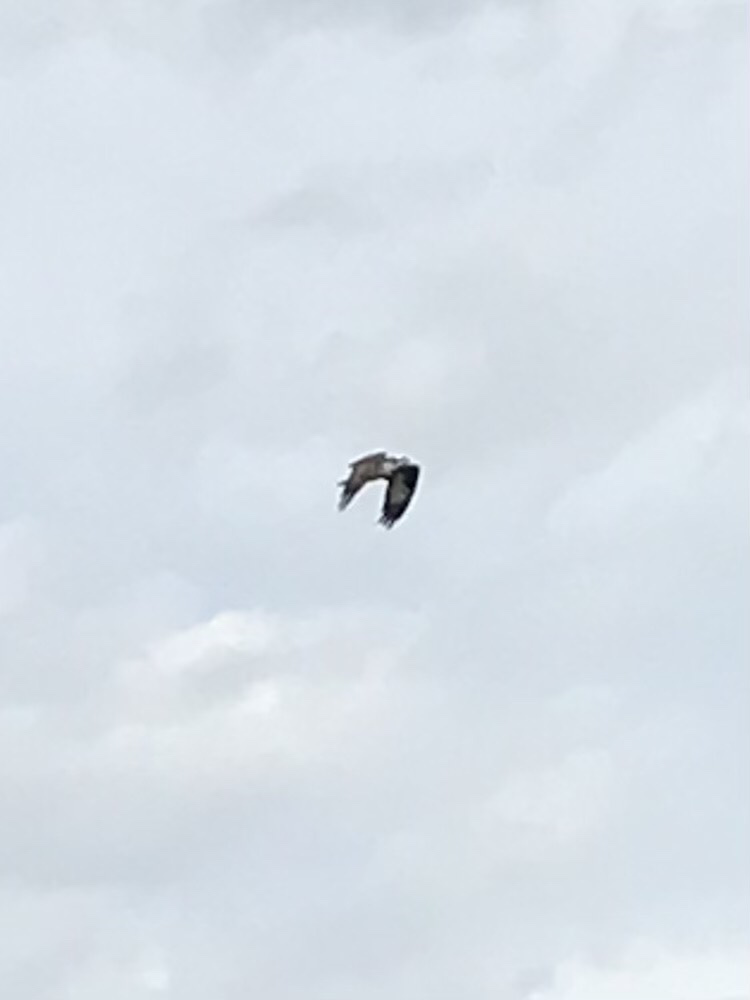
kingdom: Animalia
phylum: Chordata
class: Aves
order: Accipitriformes
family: Pandionidae
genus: Pandion
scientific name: Pandion haliaetus
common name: Osprey
